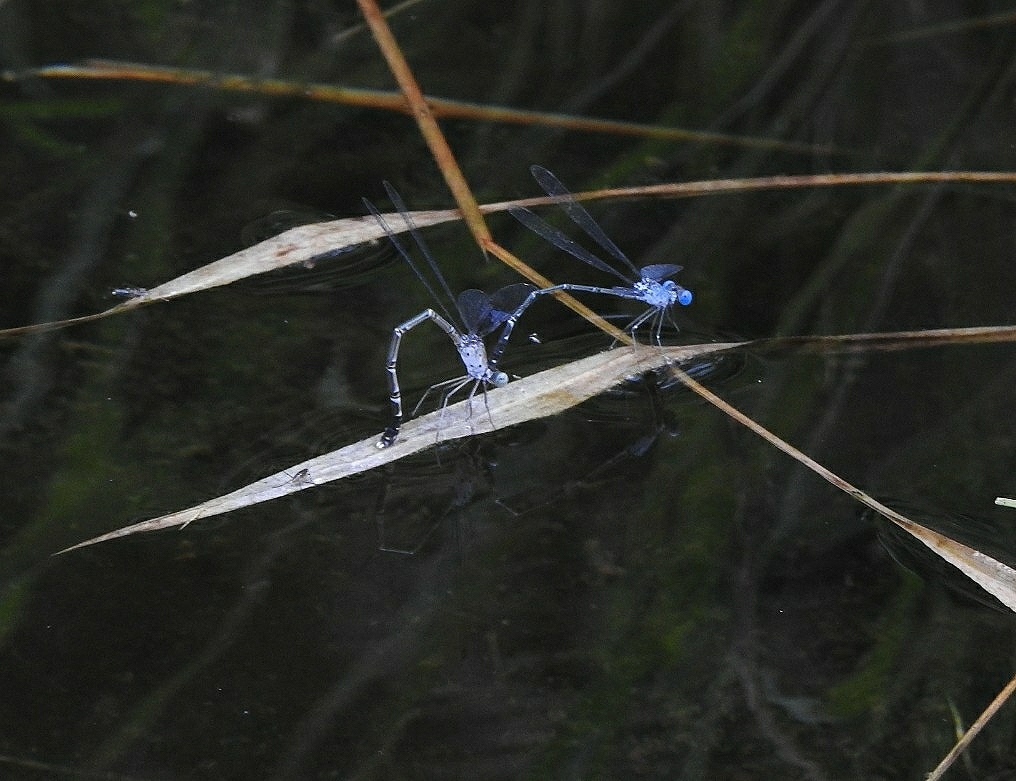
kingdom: Animalia
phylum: Arthropoda
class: Insecta
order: Odonata
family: Lestidae
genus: Lestes
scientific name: Lestes praemorsus
